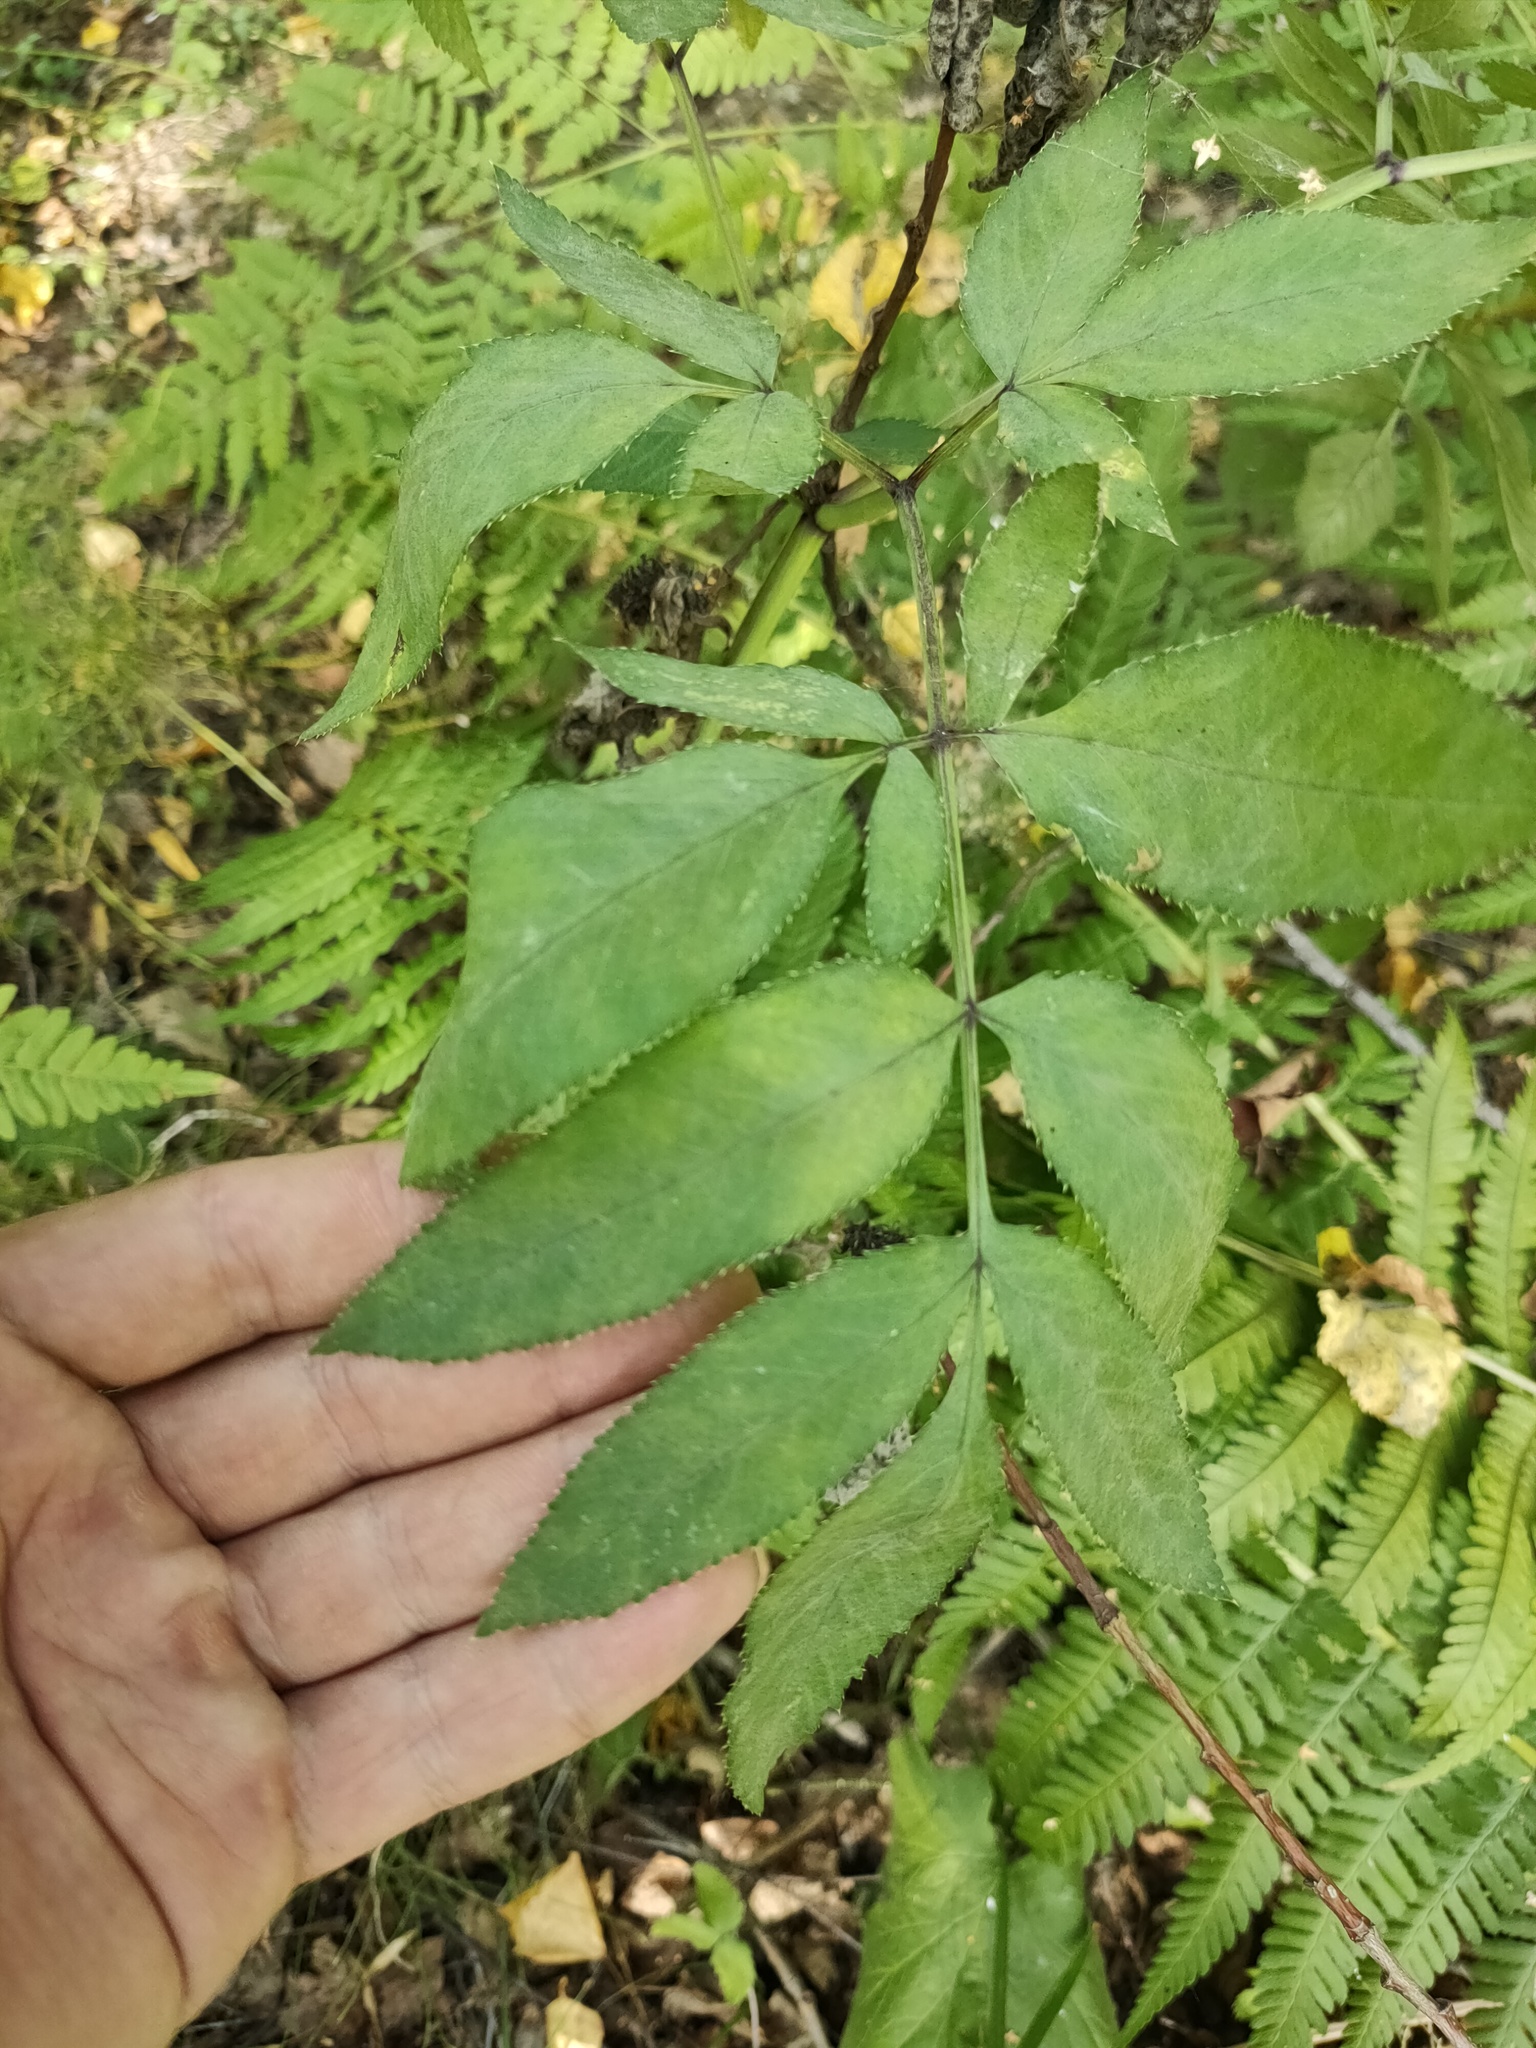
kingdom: Plantae
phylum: Tracheophyta
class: Magnoliopsida
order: Apiales
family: Apiaceae
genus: Angelica
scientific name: Angelica sylvestris
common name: Wild angelica
